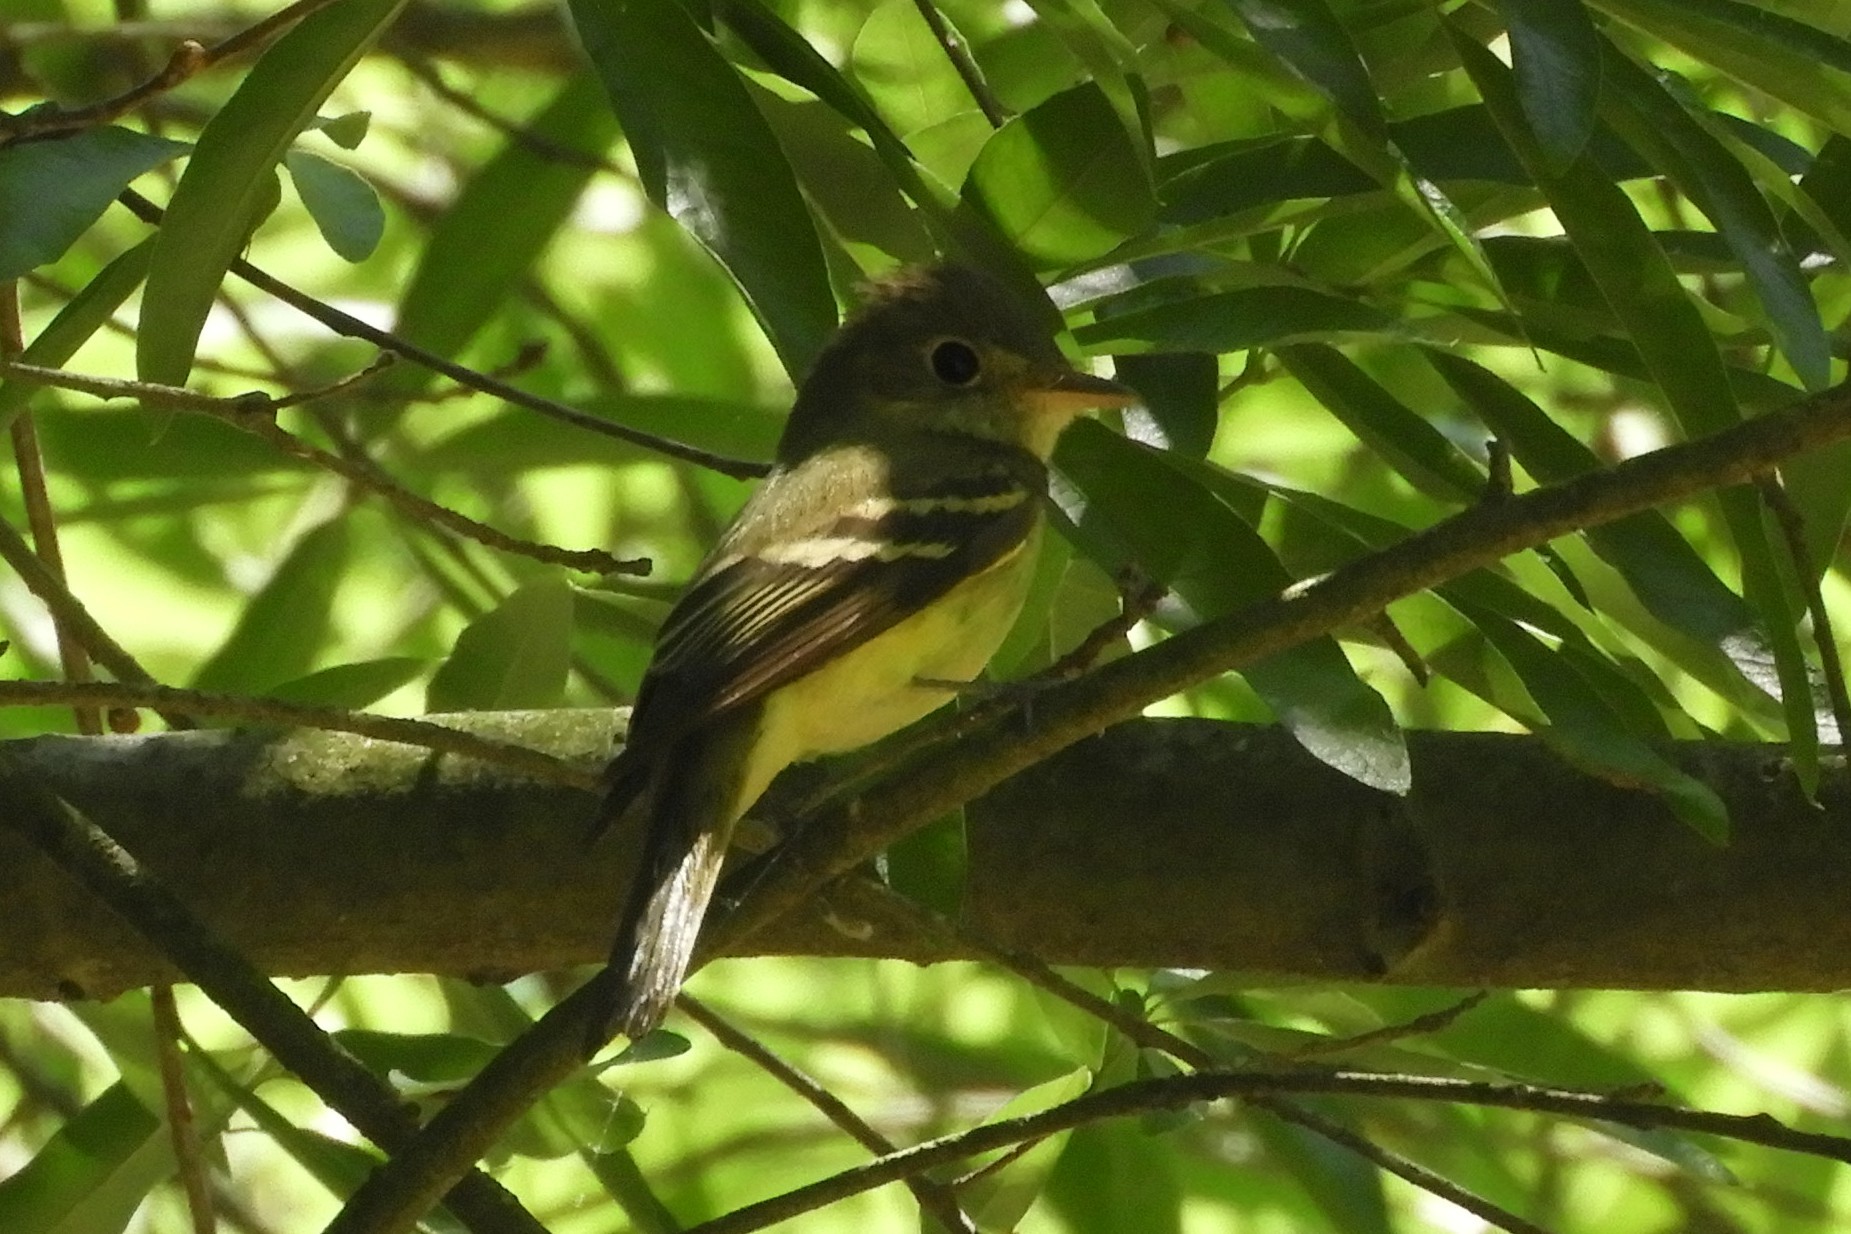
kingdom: Animalia
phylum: Chordata
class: Aves
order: Passeriformes
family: Tyrannidae
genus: Empidonax
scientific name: Empidonax flaviventris
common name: Yellow-bellied flycatcher
